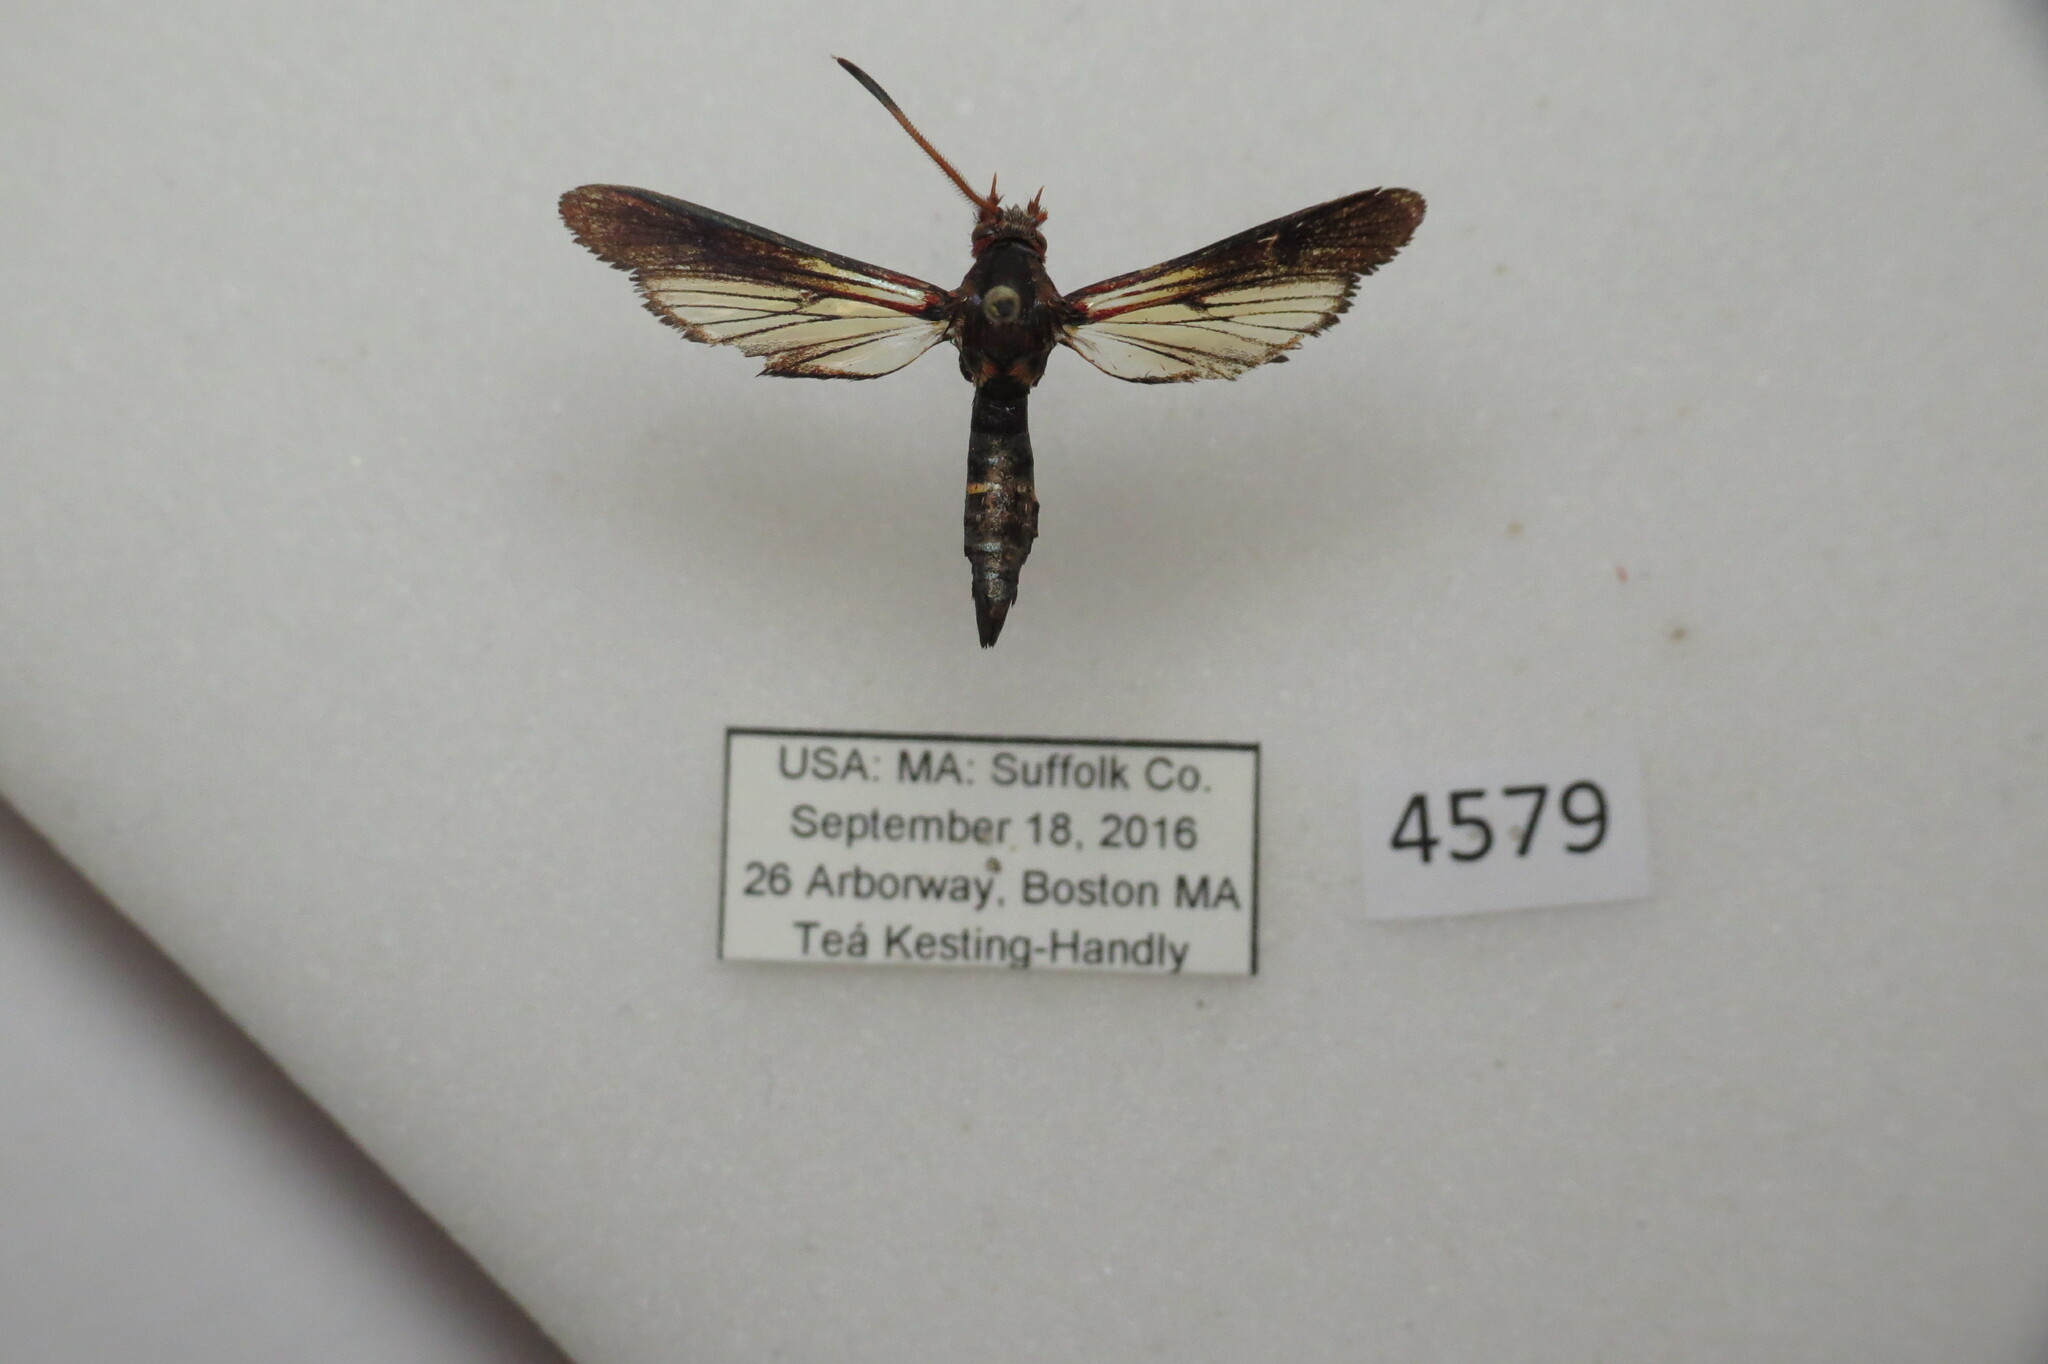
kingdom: Animalia
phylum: Arthropoda
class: Insecta
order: Lepidoptera
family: Sesiidae
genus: Podosesia
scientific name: Podosesia aureocincta
